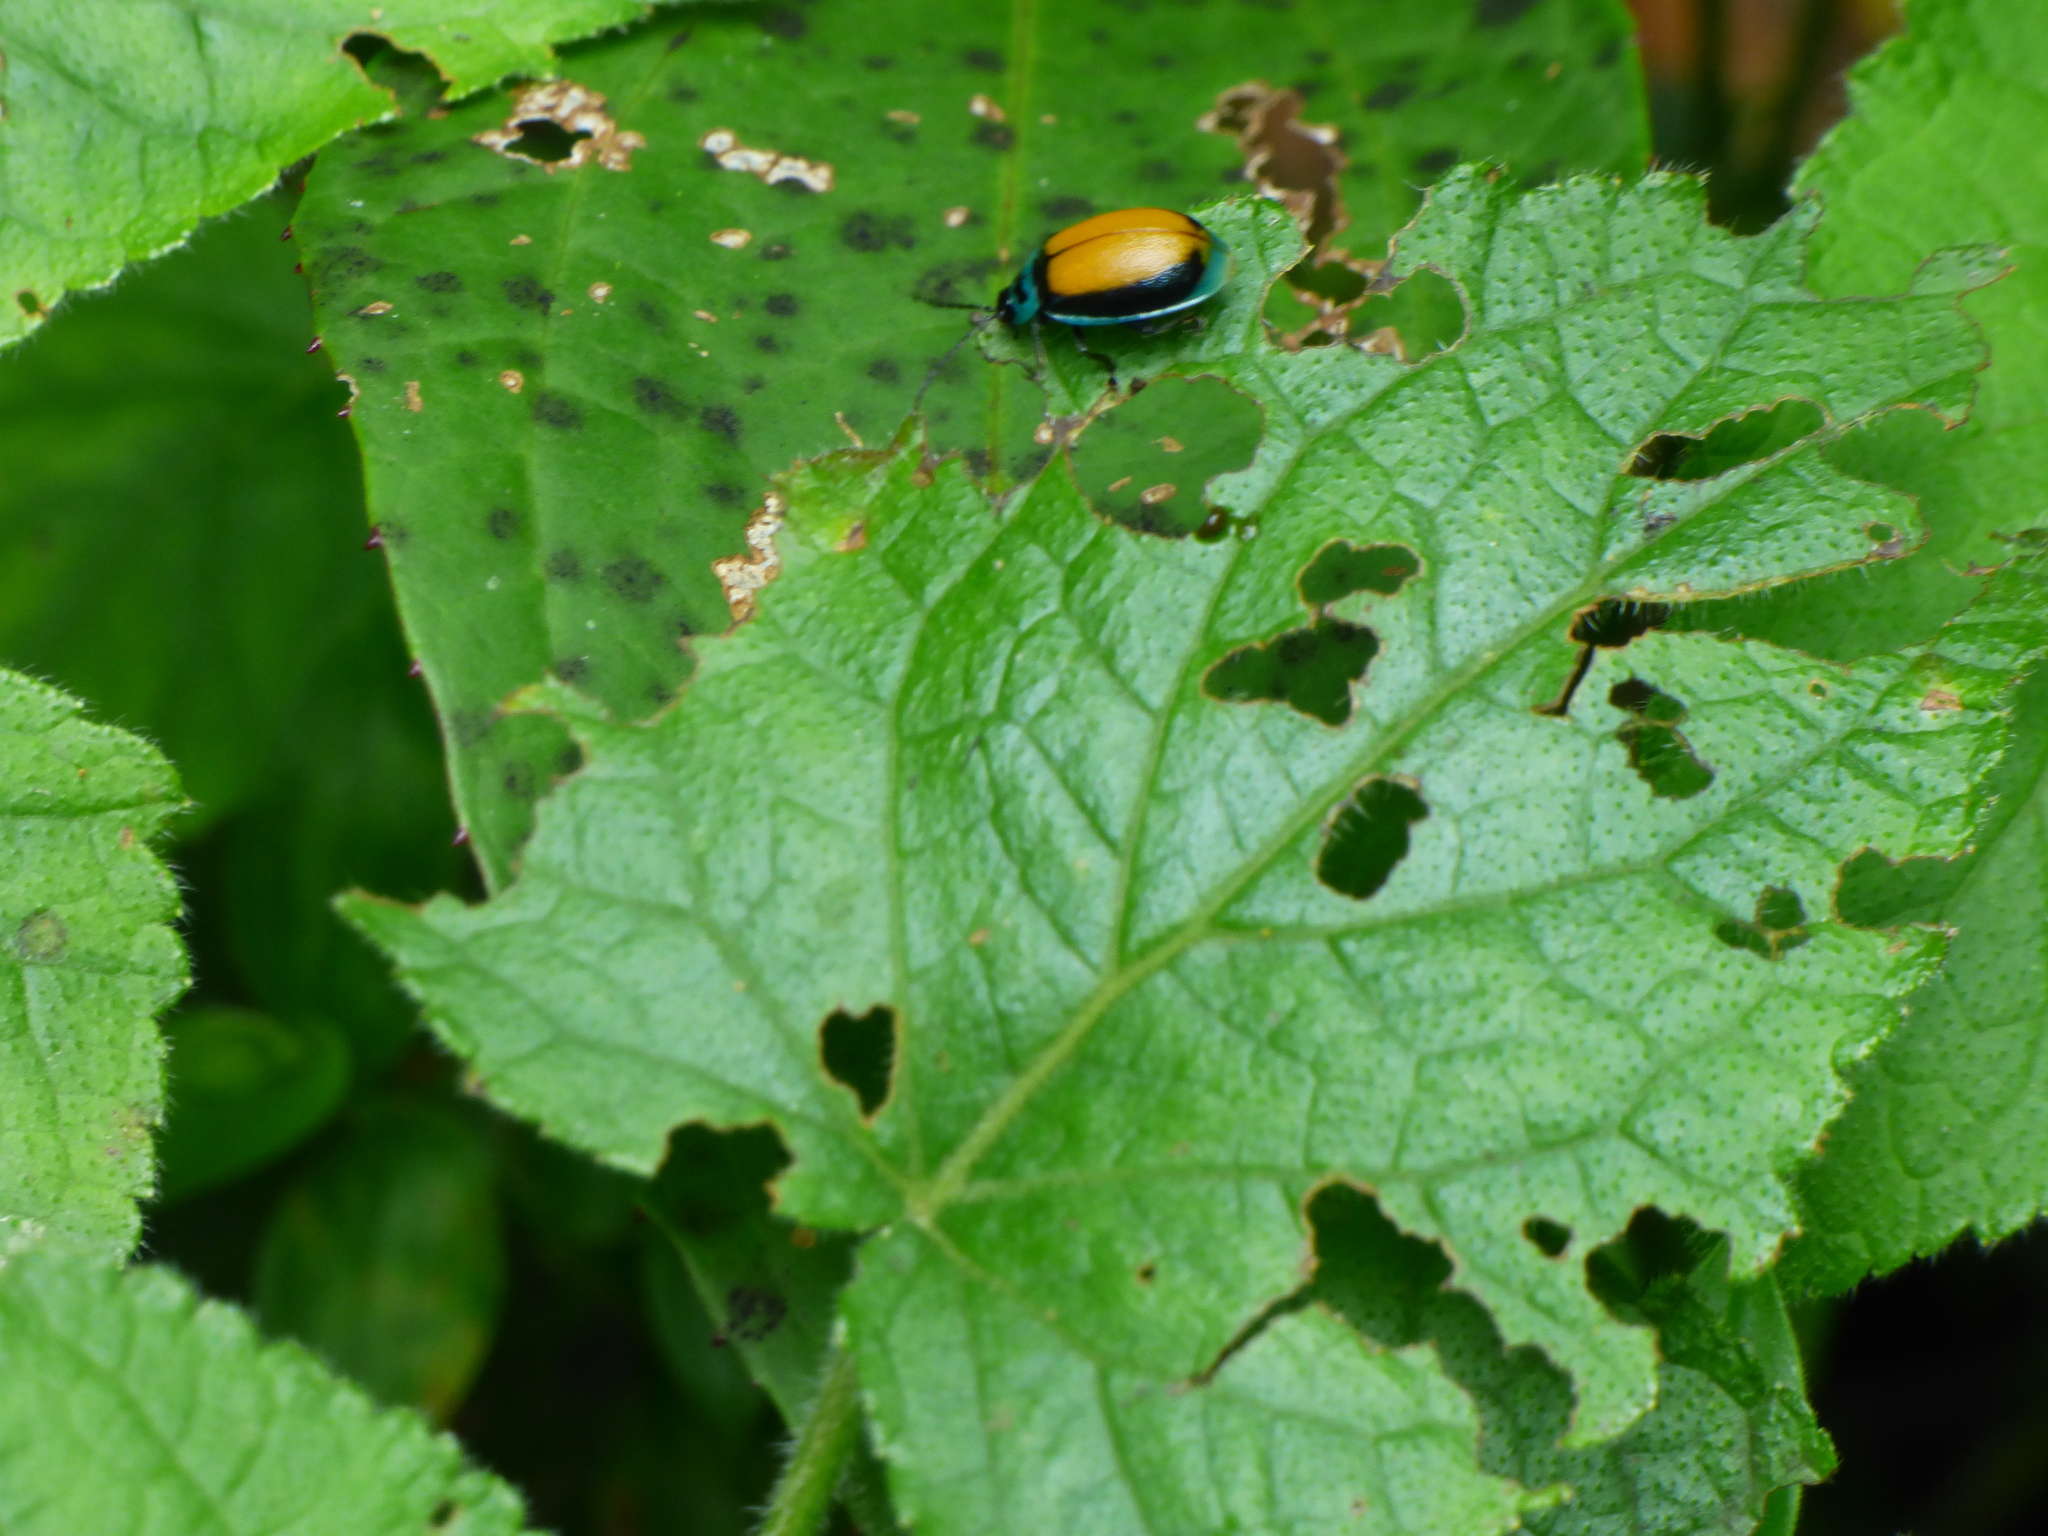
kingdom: Animalia
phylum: Arthropoda
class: Insecta
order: Coleoptera
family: Chrysomelidae
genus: Aspicela
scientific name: Aspicela
